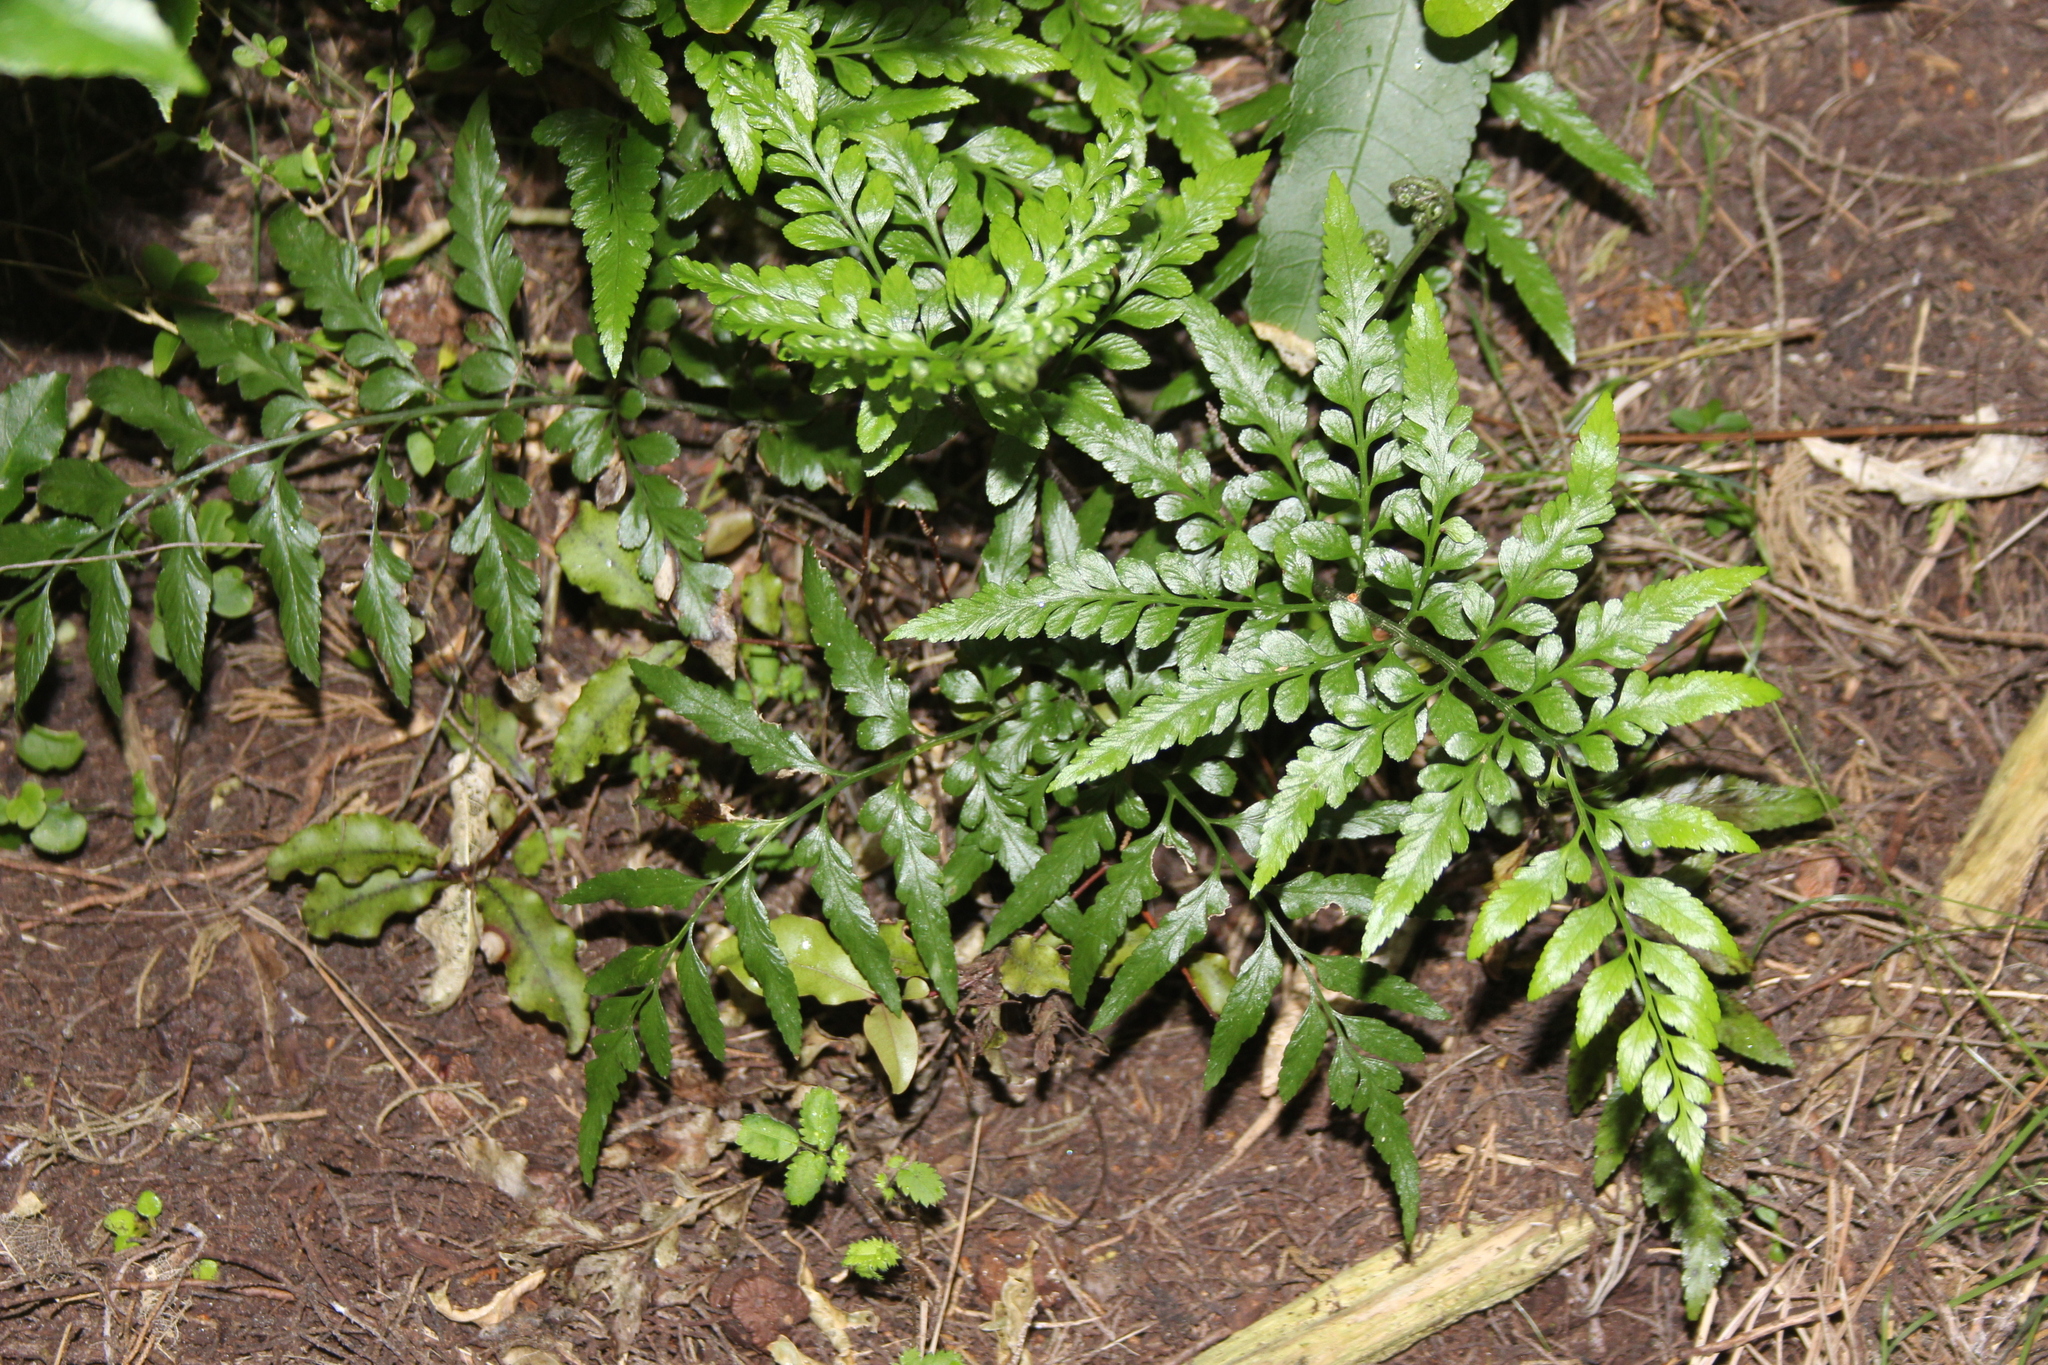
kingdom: Plantae
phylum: Tracheophyta
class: Polypodiopsida
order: Polypodiales
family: Aspleniaceae
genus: Asplenium
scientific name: Asplenium lyallii
